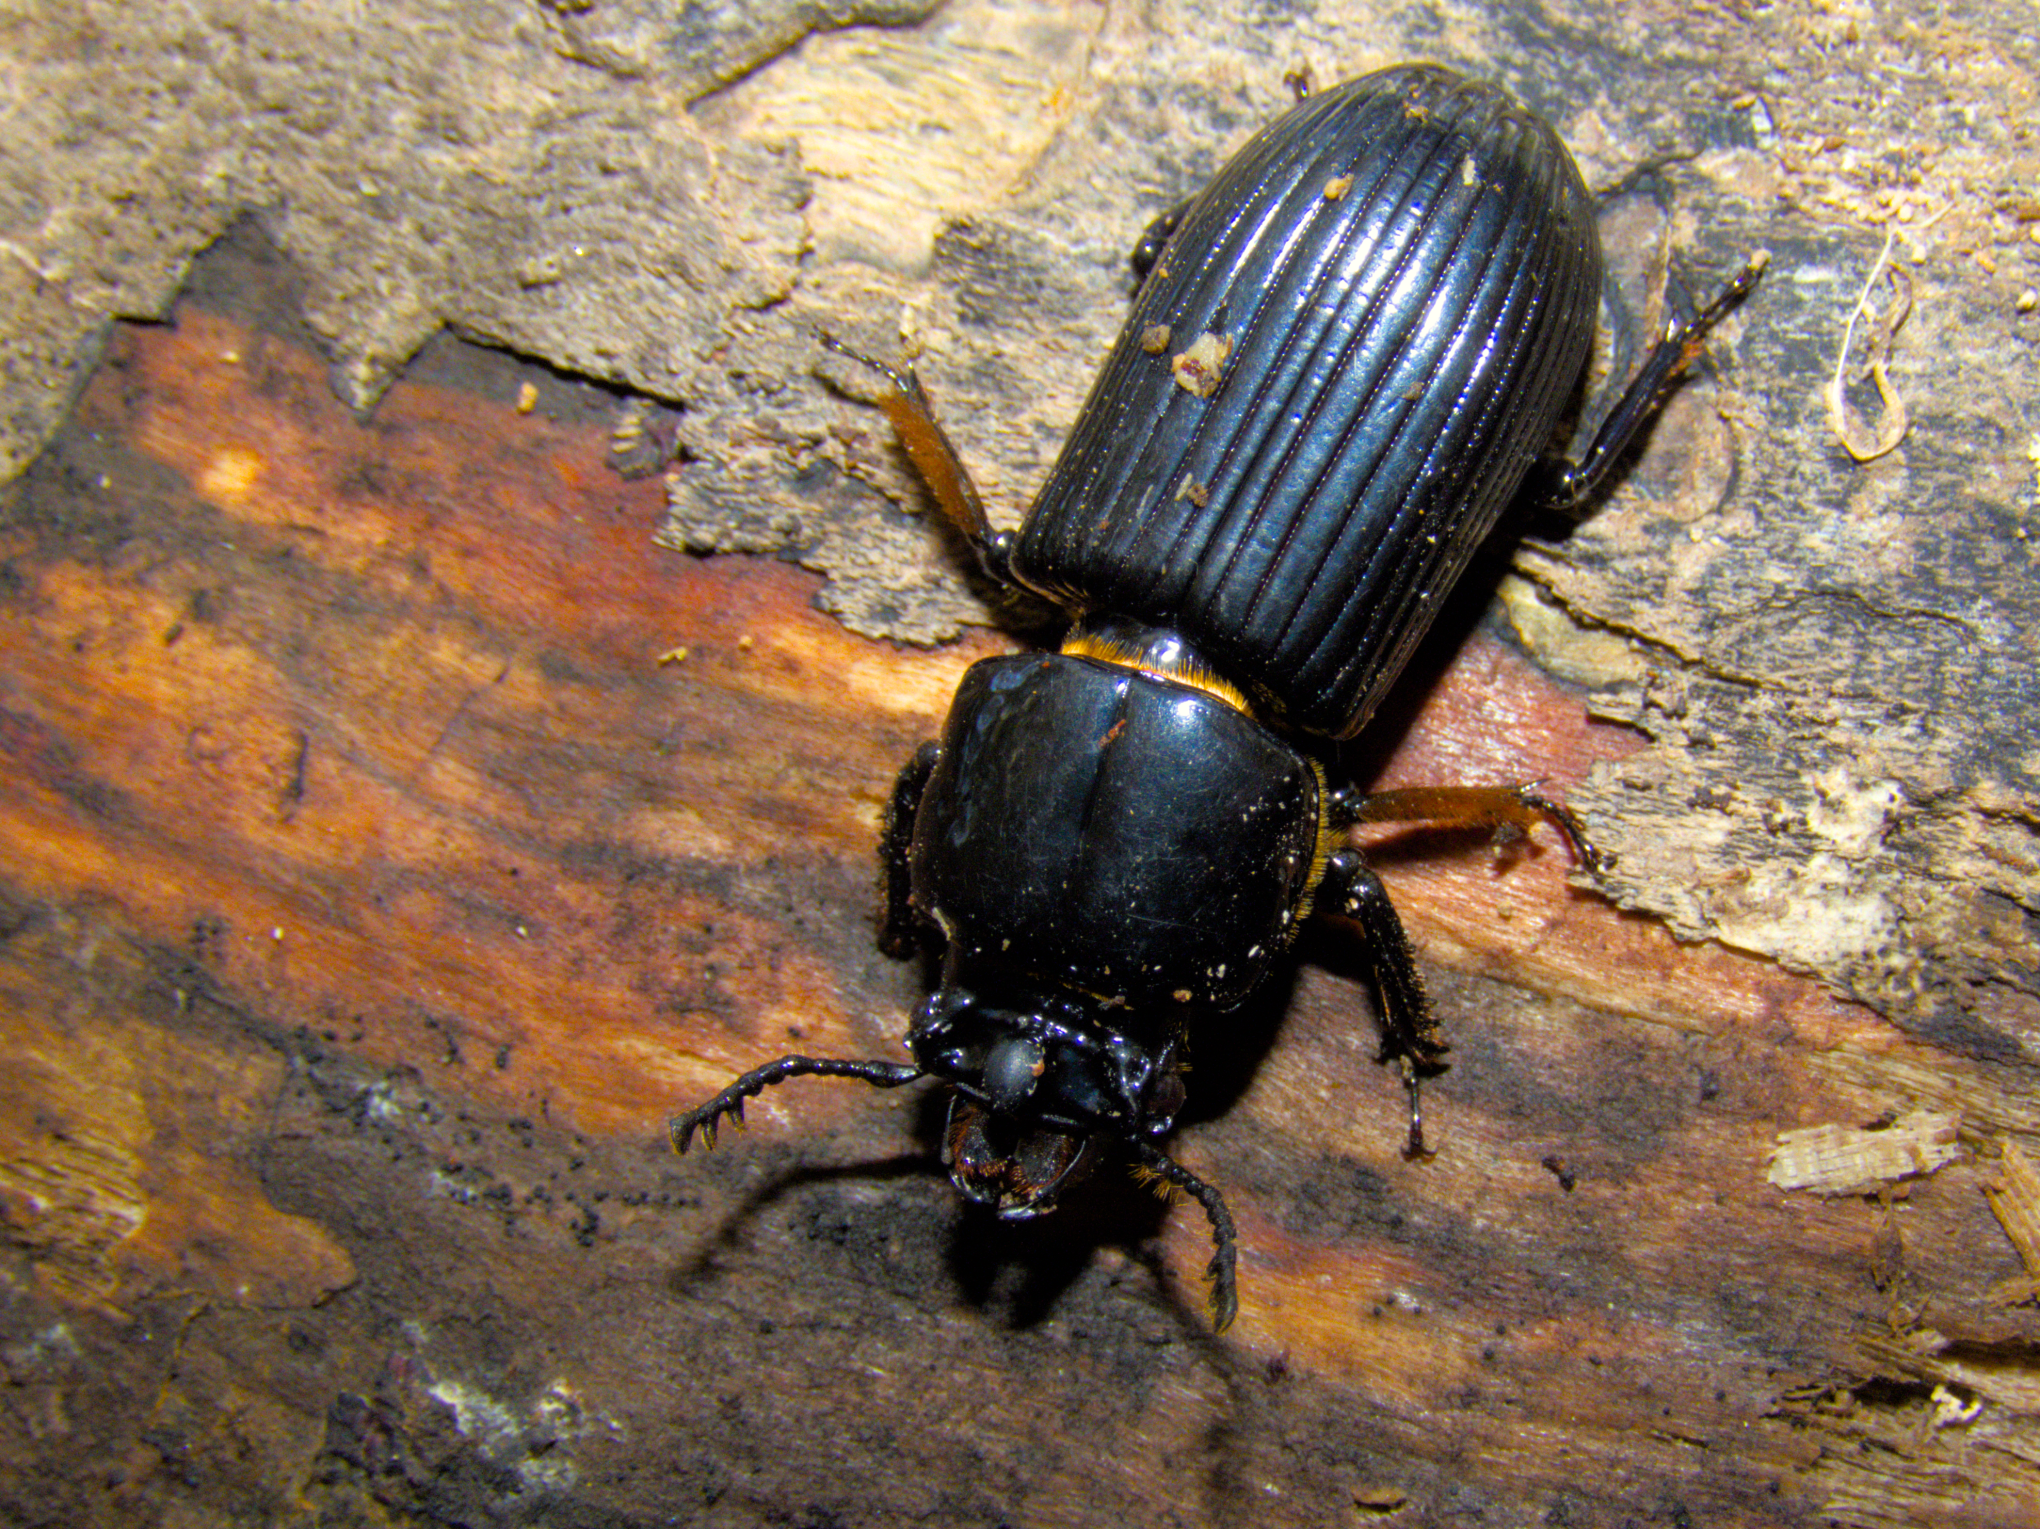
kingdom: Animalia
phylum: Arthropoda
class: Insecta
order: Coleoptera
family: Passalidae
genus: Odontotaenius
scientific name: Odontotaenius disjunctus
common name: Patent leather beetle
